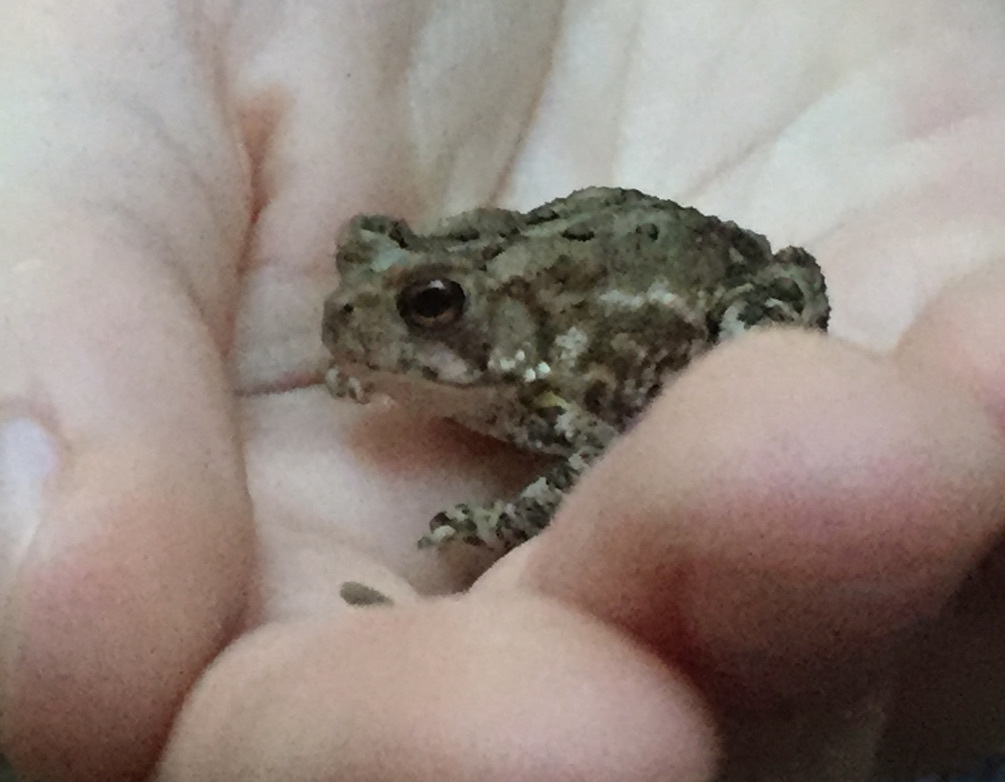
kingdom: Animalia
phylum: Chordata
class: Amphibia
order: Anura
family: Bufonidae
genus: Anaxyrus
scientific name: Anaxyrus americanus
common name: American toad
